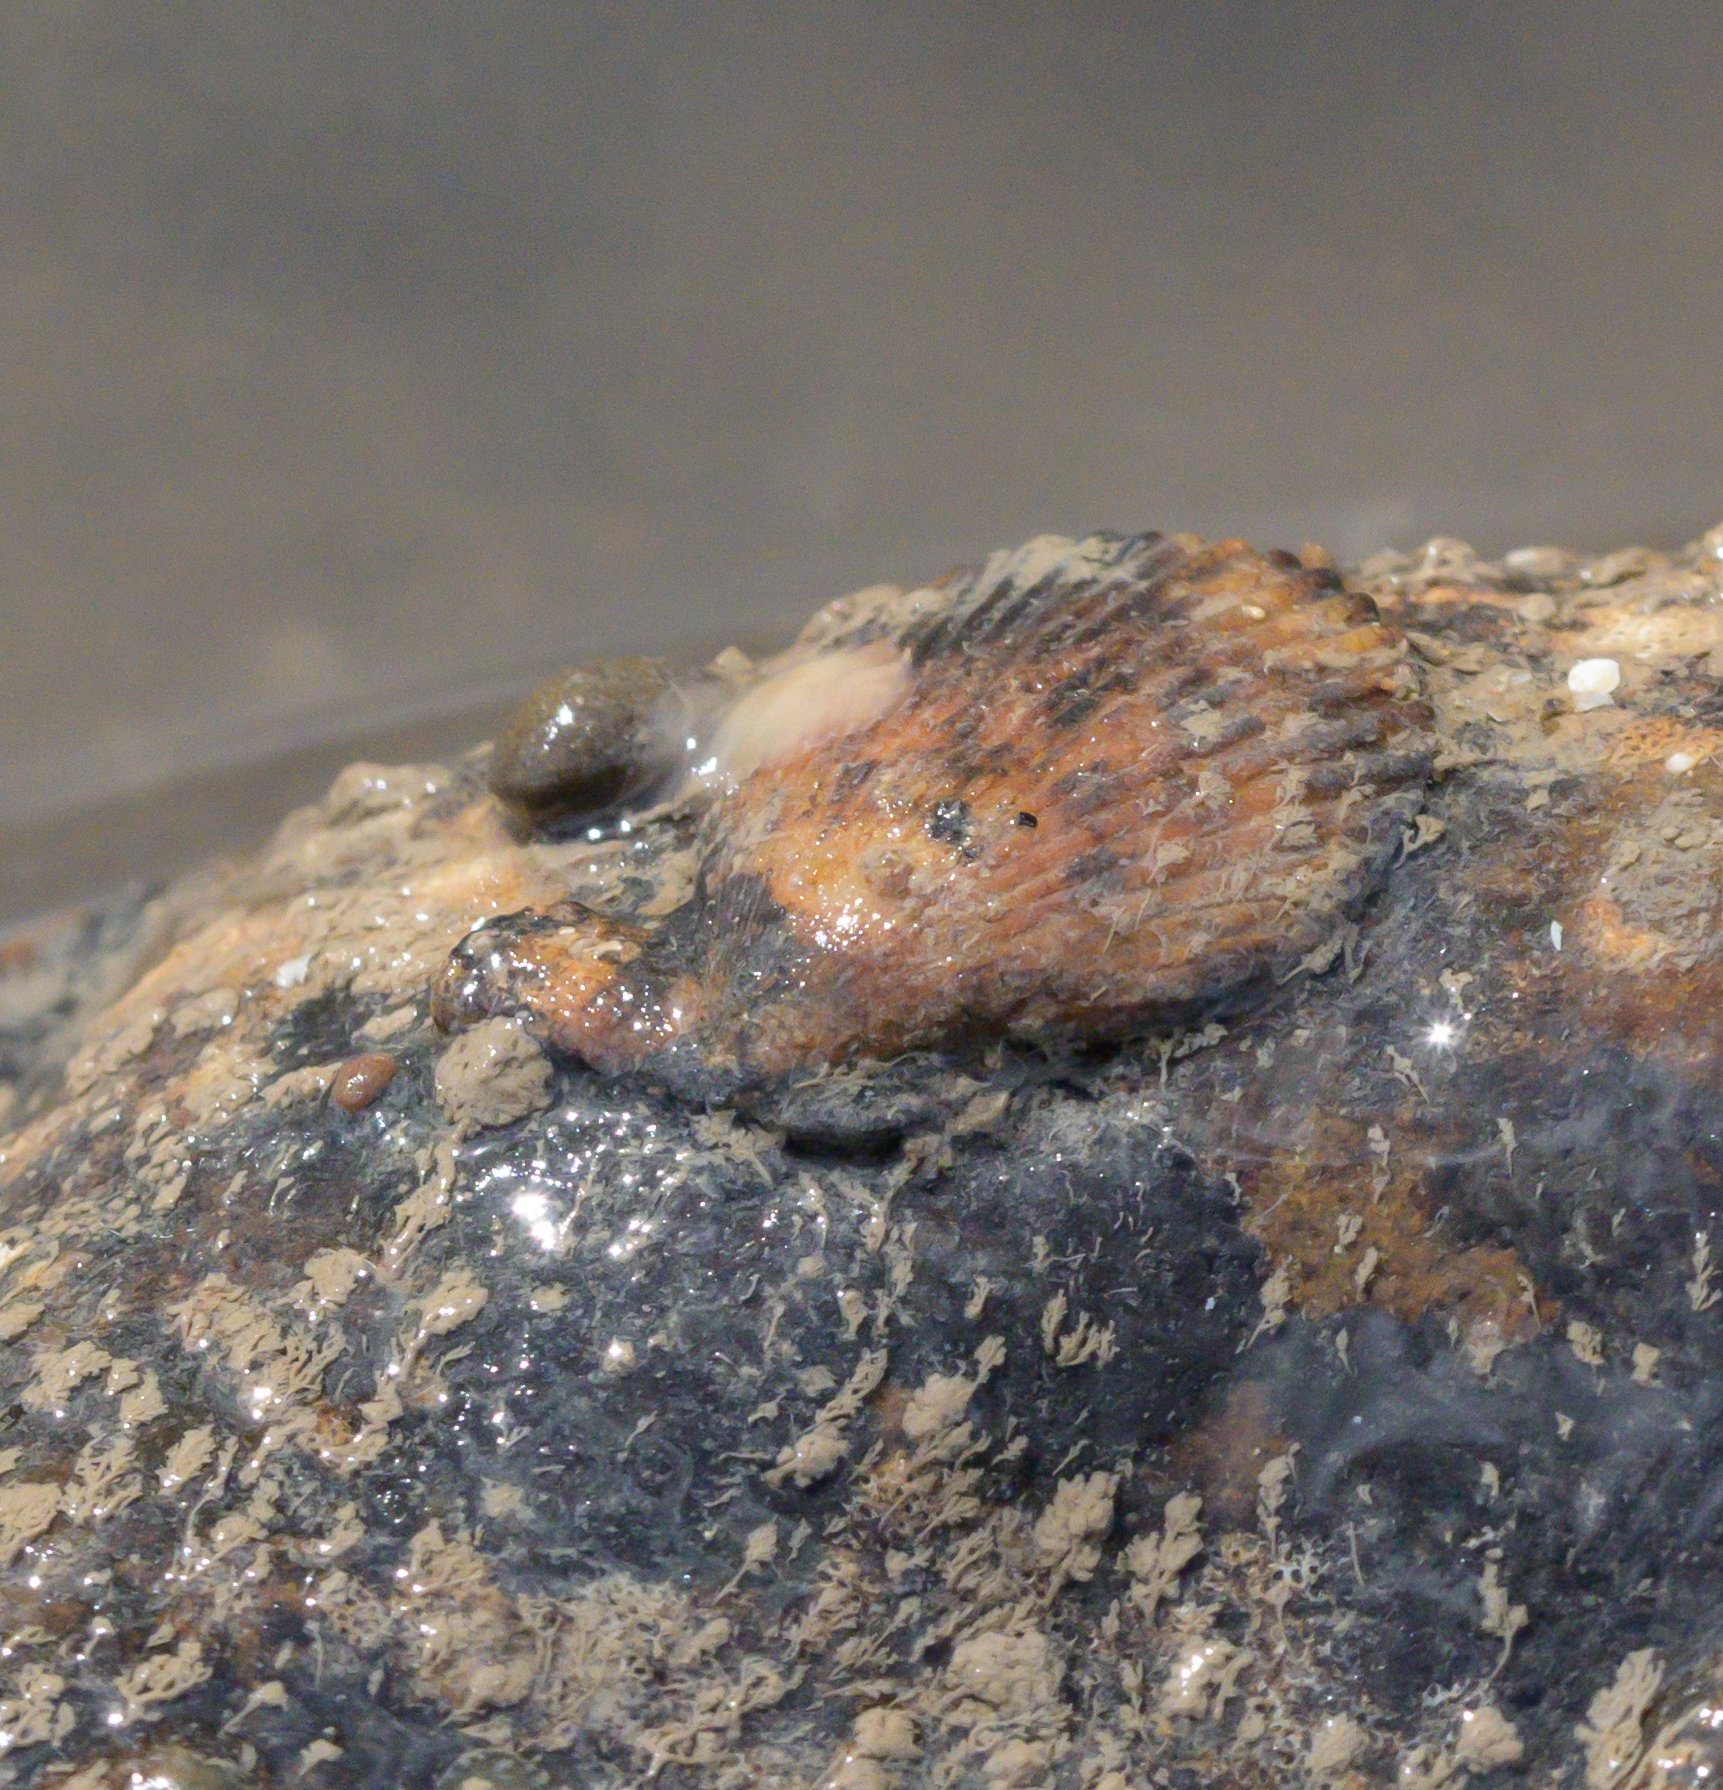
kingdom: Animalia
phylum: Mollusca
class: Bivalvia
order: Pectinida
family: Pectinidae
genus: Mimachlamys
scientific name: Mimachlamys varia
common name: Variegated scallop
